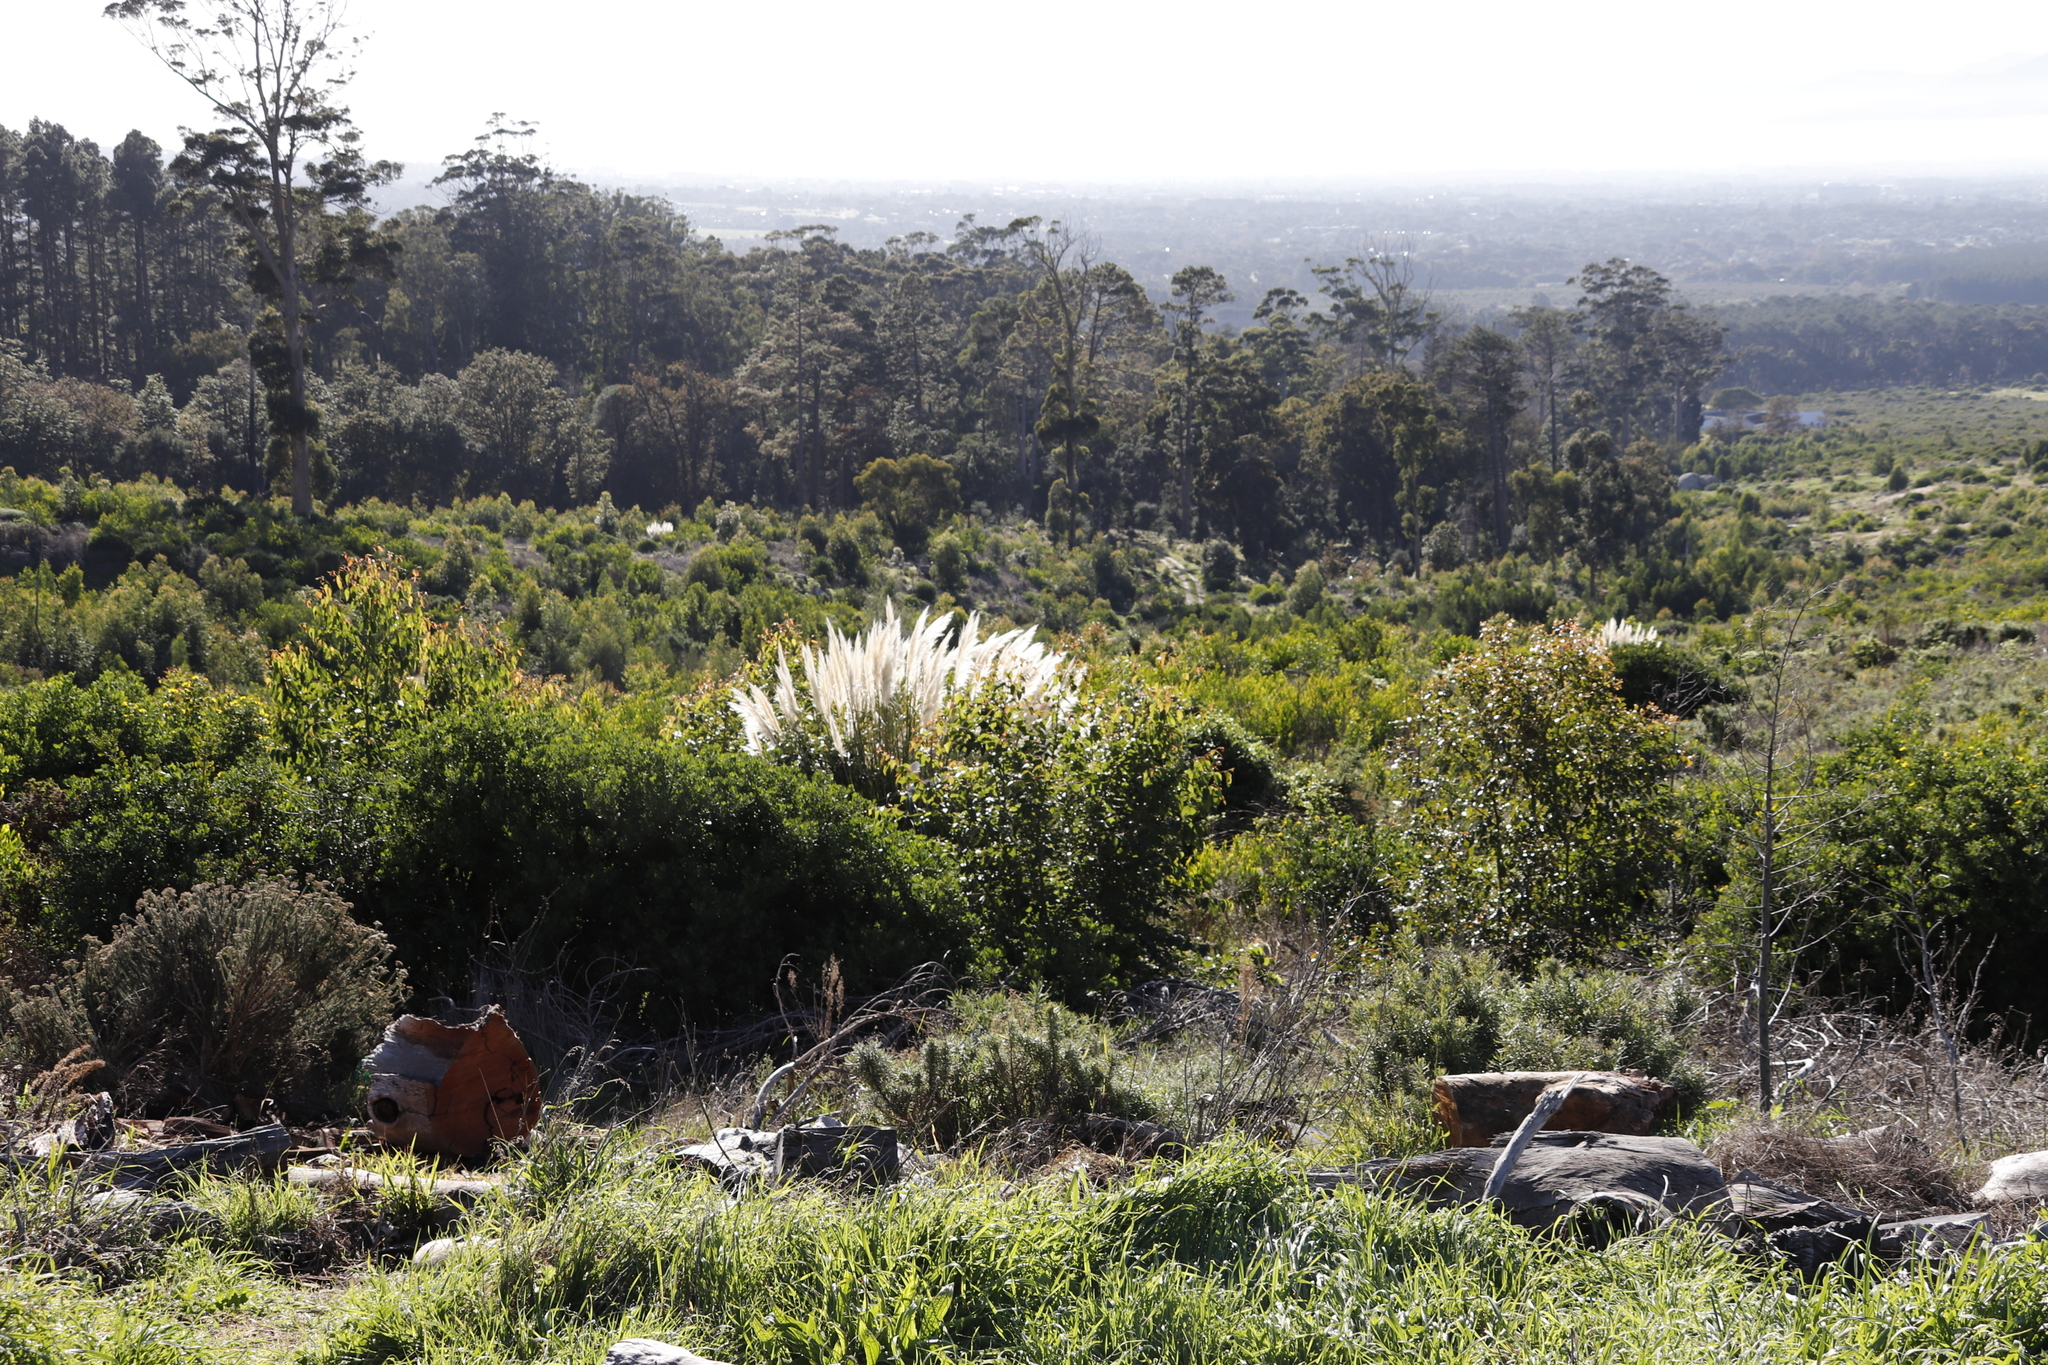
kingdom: Plantae
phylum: Tracheophyta
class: Liliopsida
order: Poales
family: Poaceae
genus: Cortaderia
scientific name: Cortaderia selloana
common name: Uruguayan pampas grass
